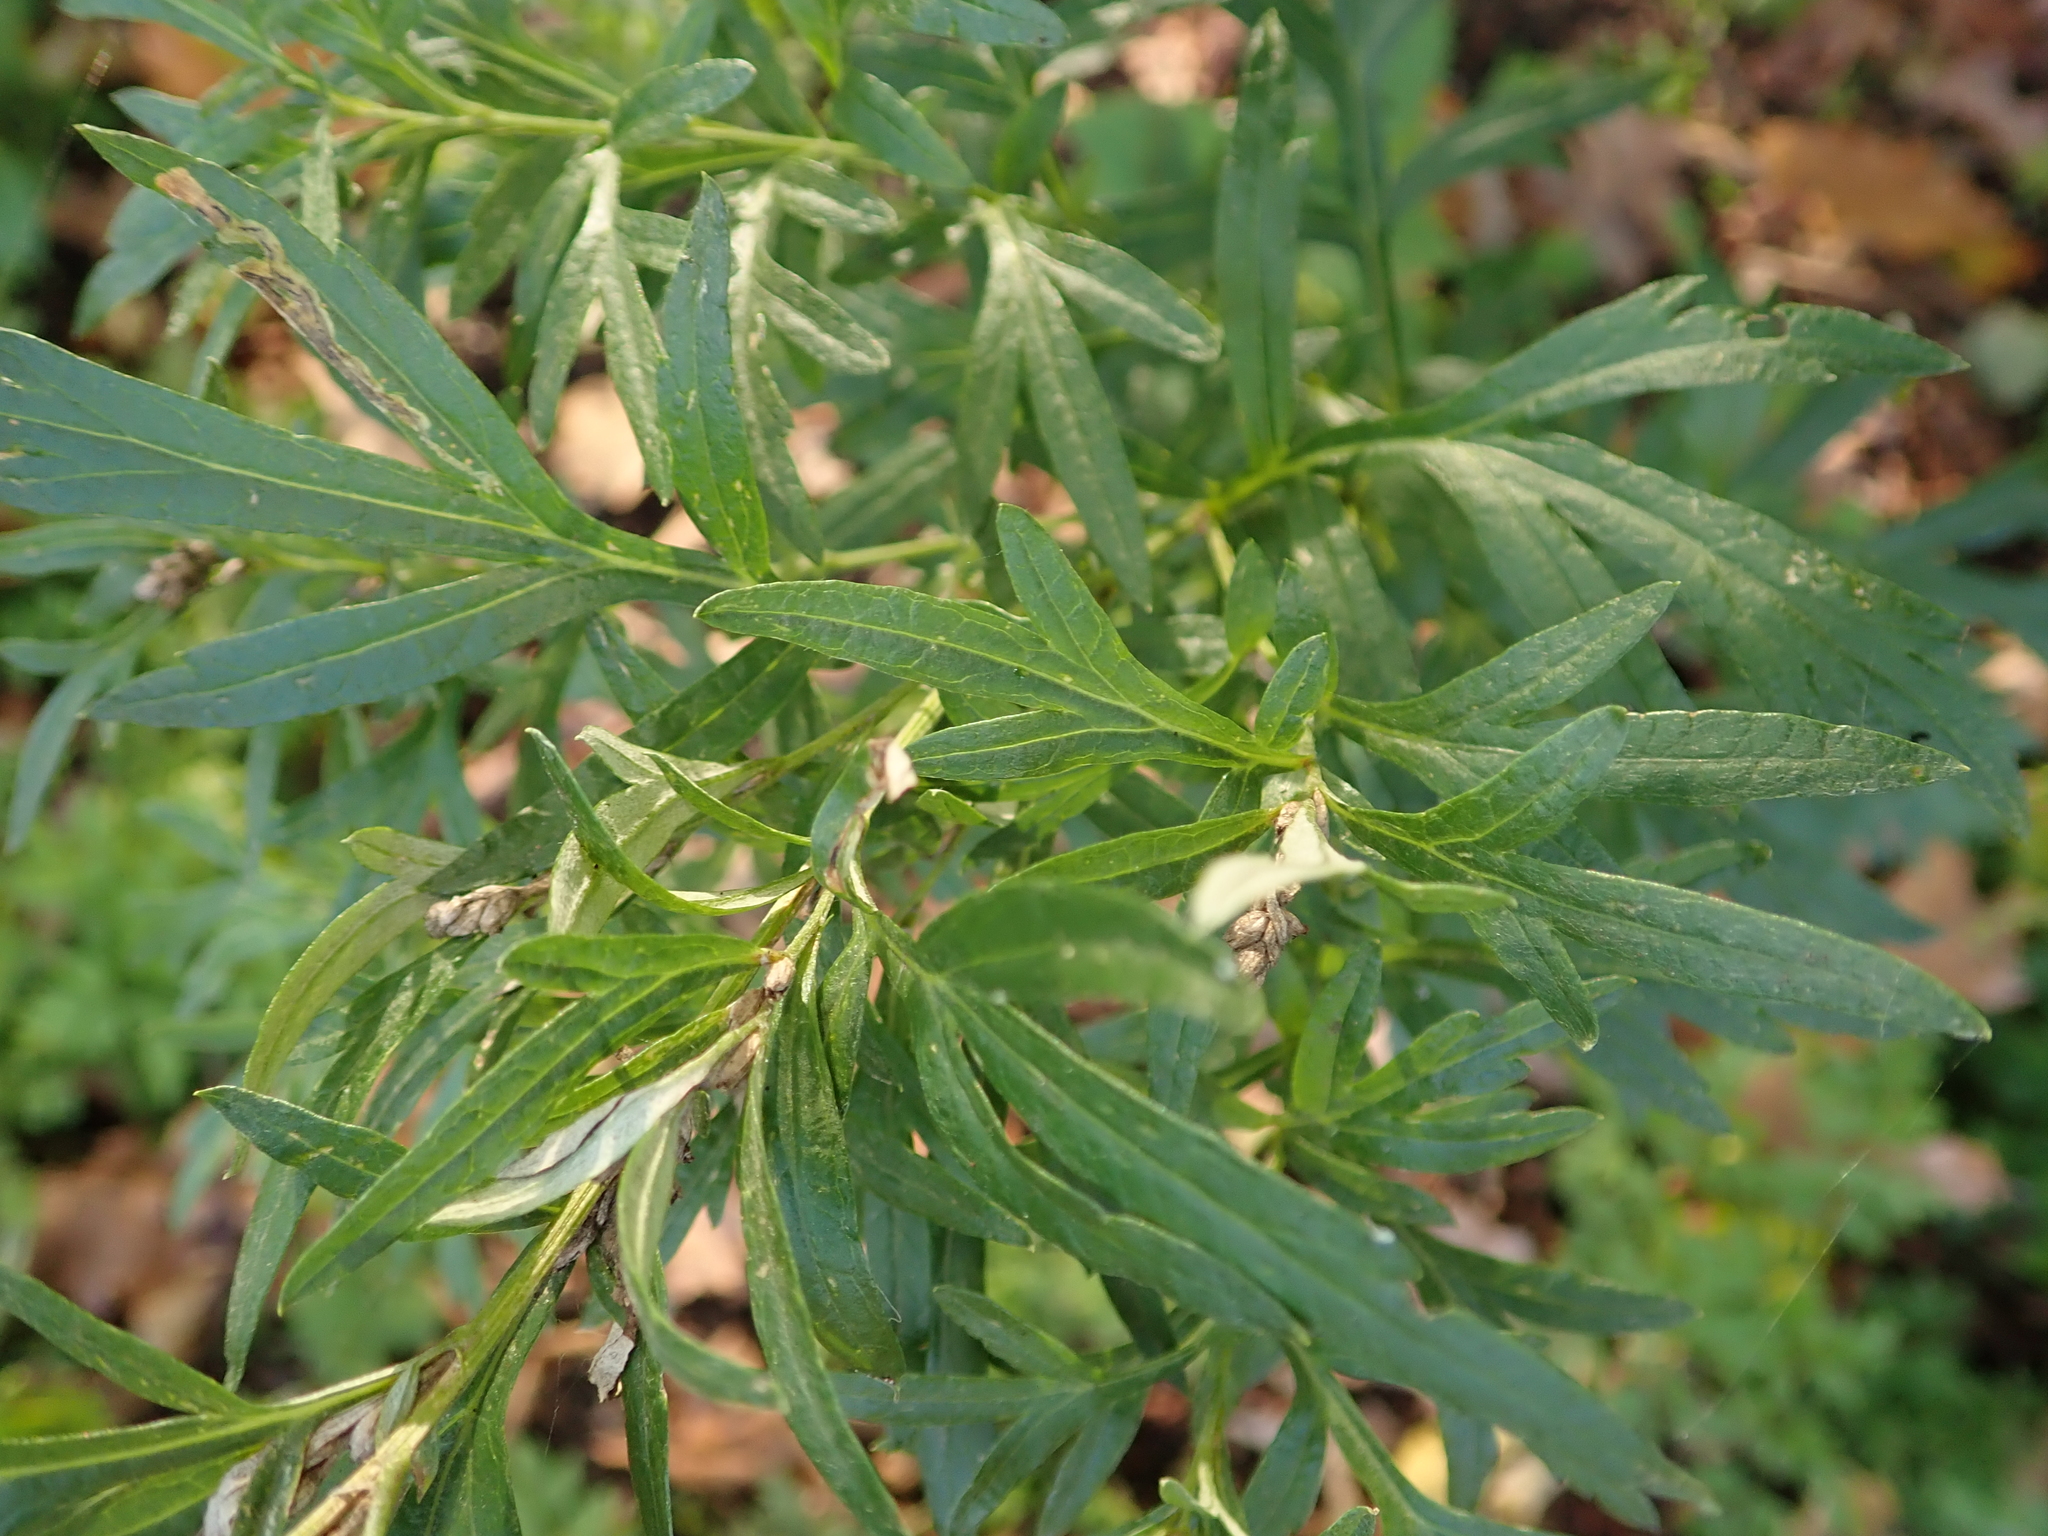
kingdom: Plantae
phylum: Tracheophyta
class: Magnoliopsida
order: Asterales
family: Asteraceae
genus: Artemisia
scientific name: Artemisia vulgaris
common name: Mugwort
